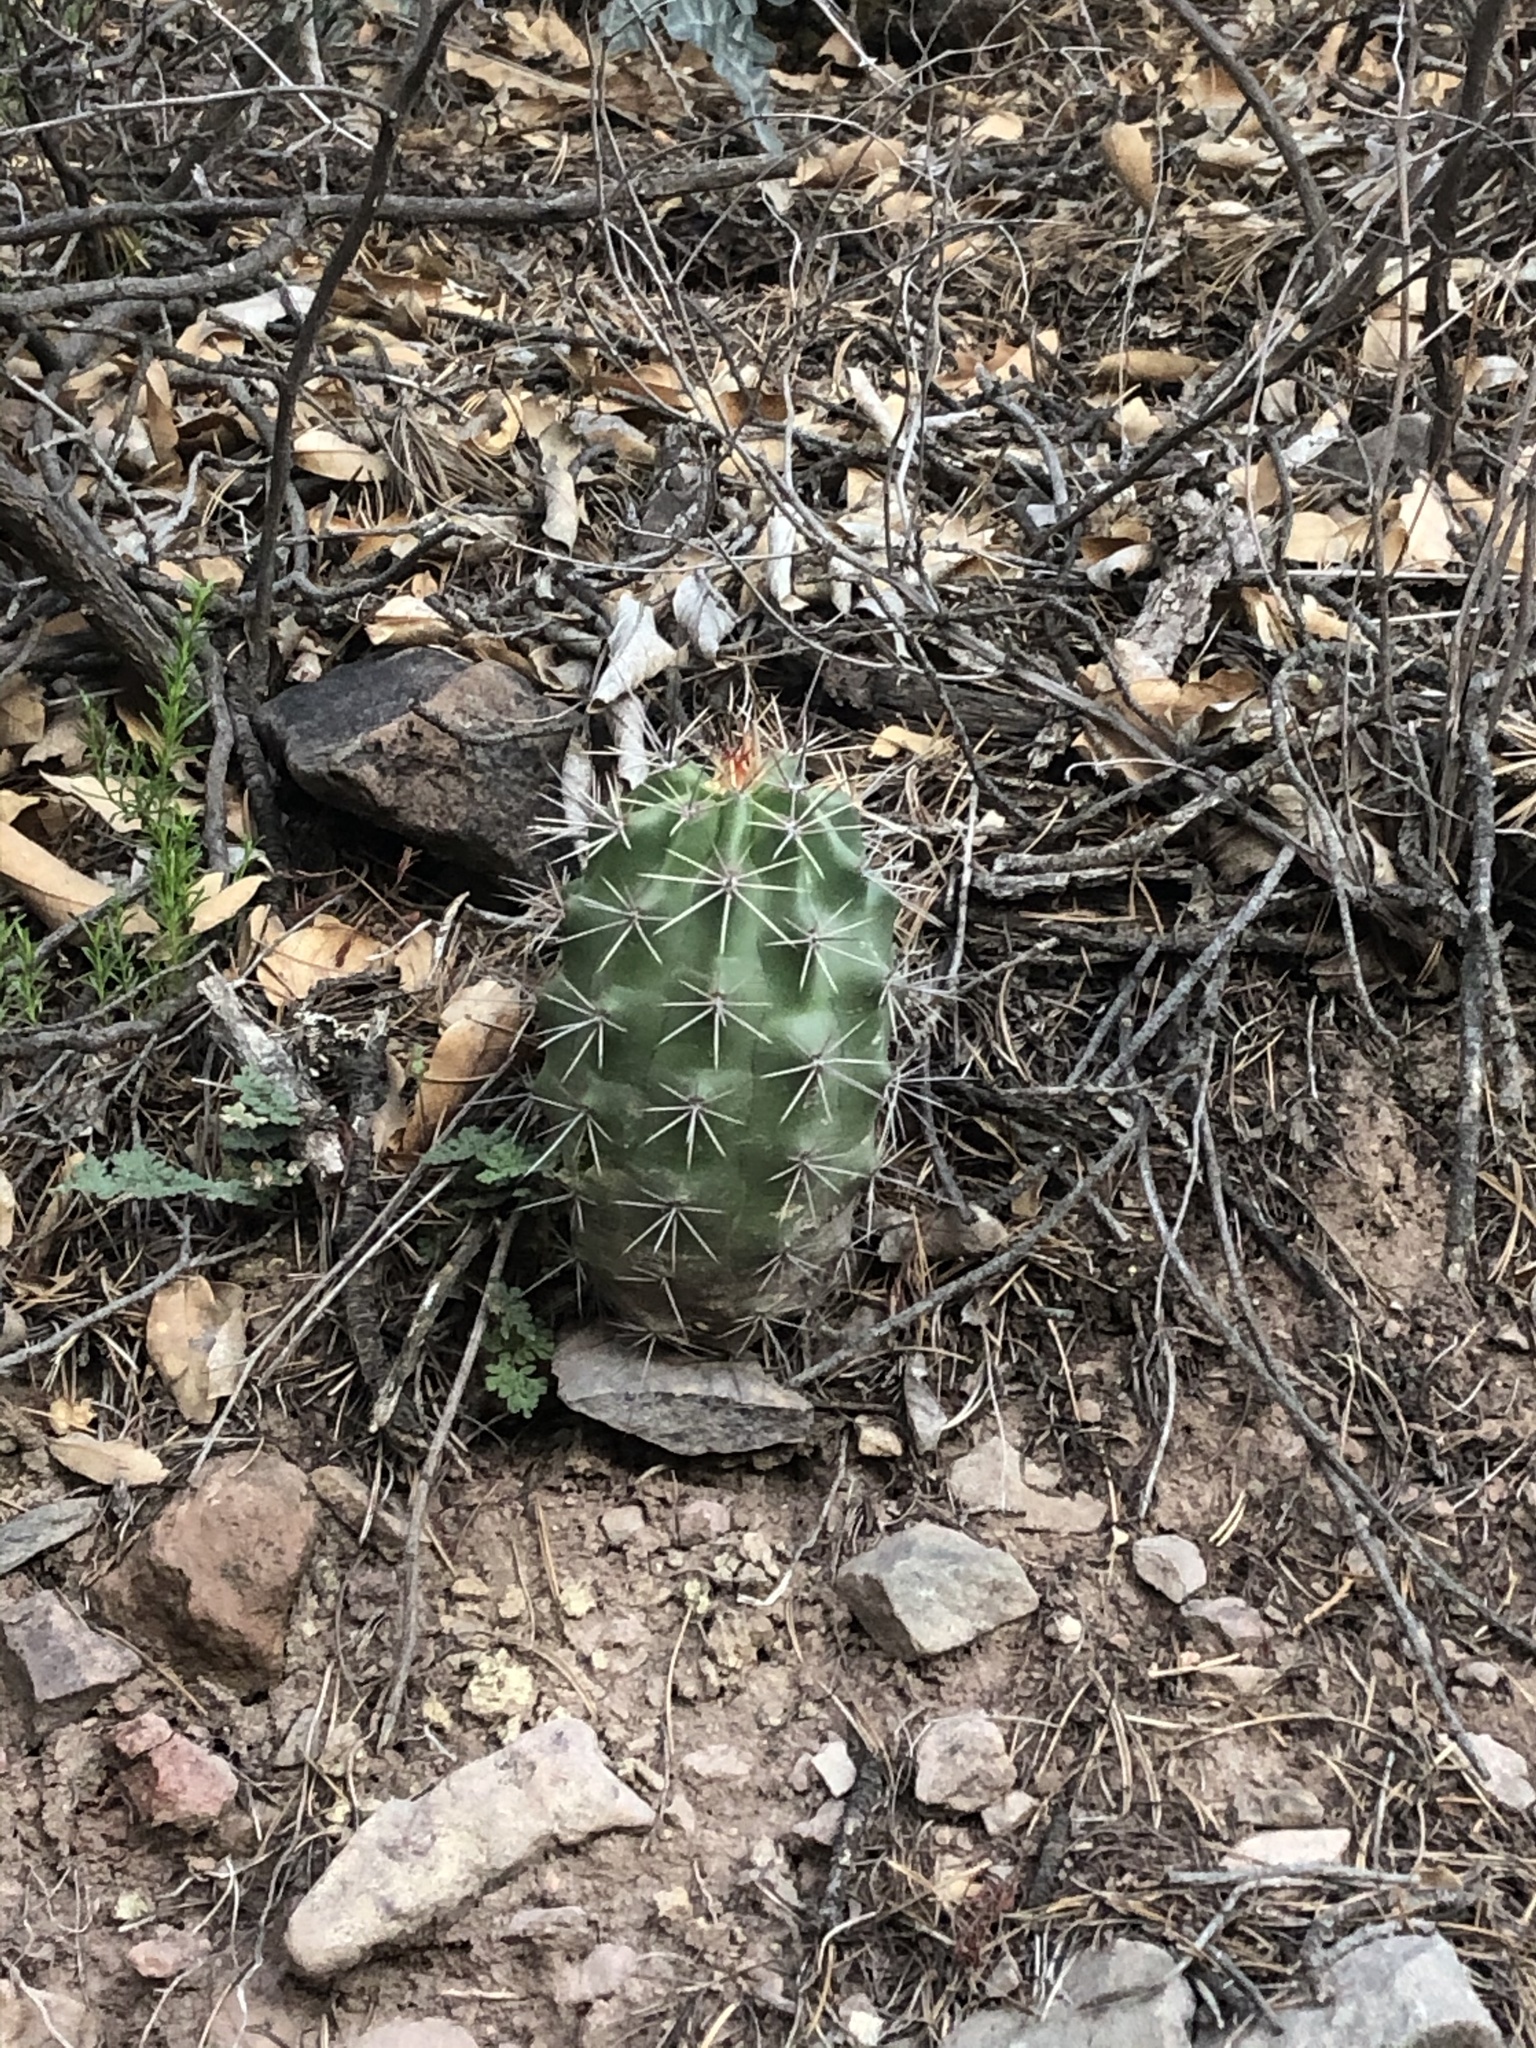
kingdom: Plantae
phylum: Tracheophyta
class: Magnoliopsida
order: Caryophyllales
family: Cactaceae
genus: Echinocereus
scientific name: Echinocereus coccineus
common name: Scarlet hedgehog cactus
